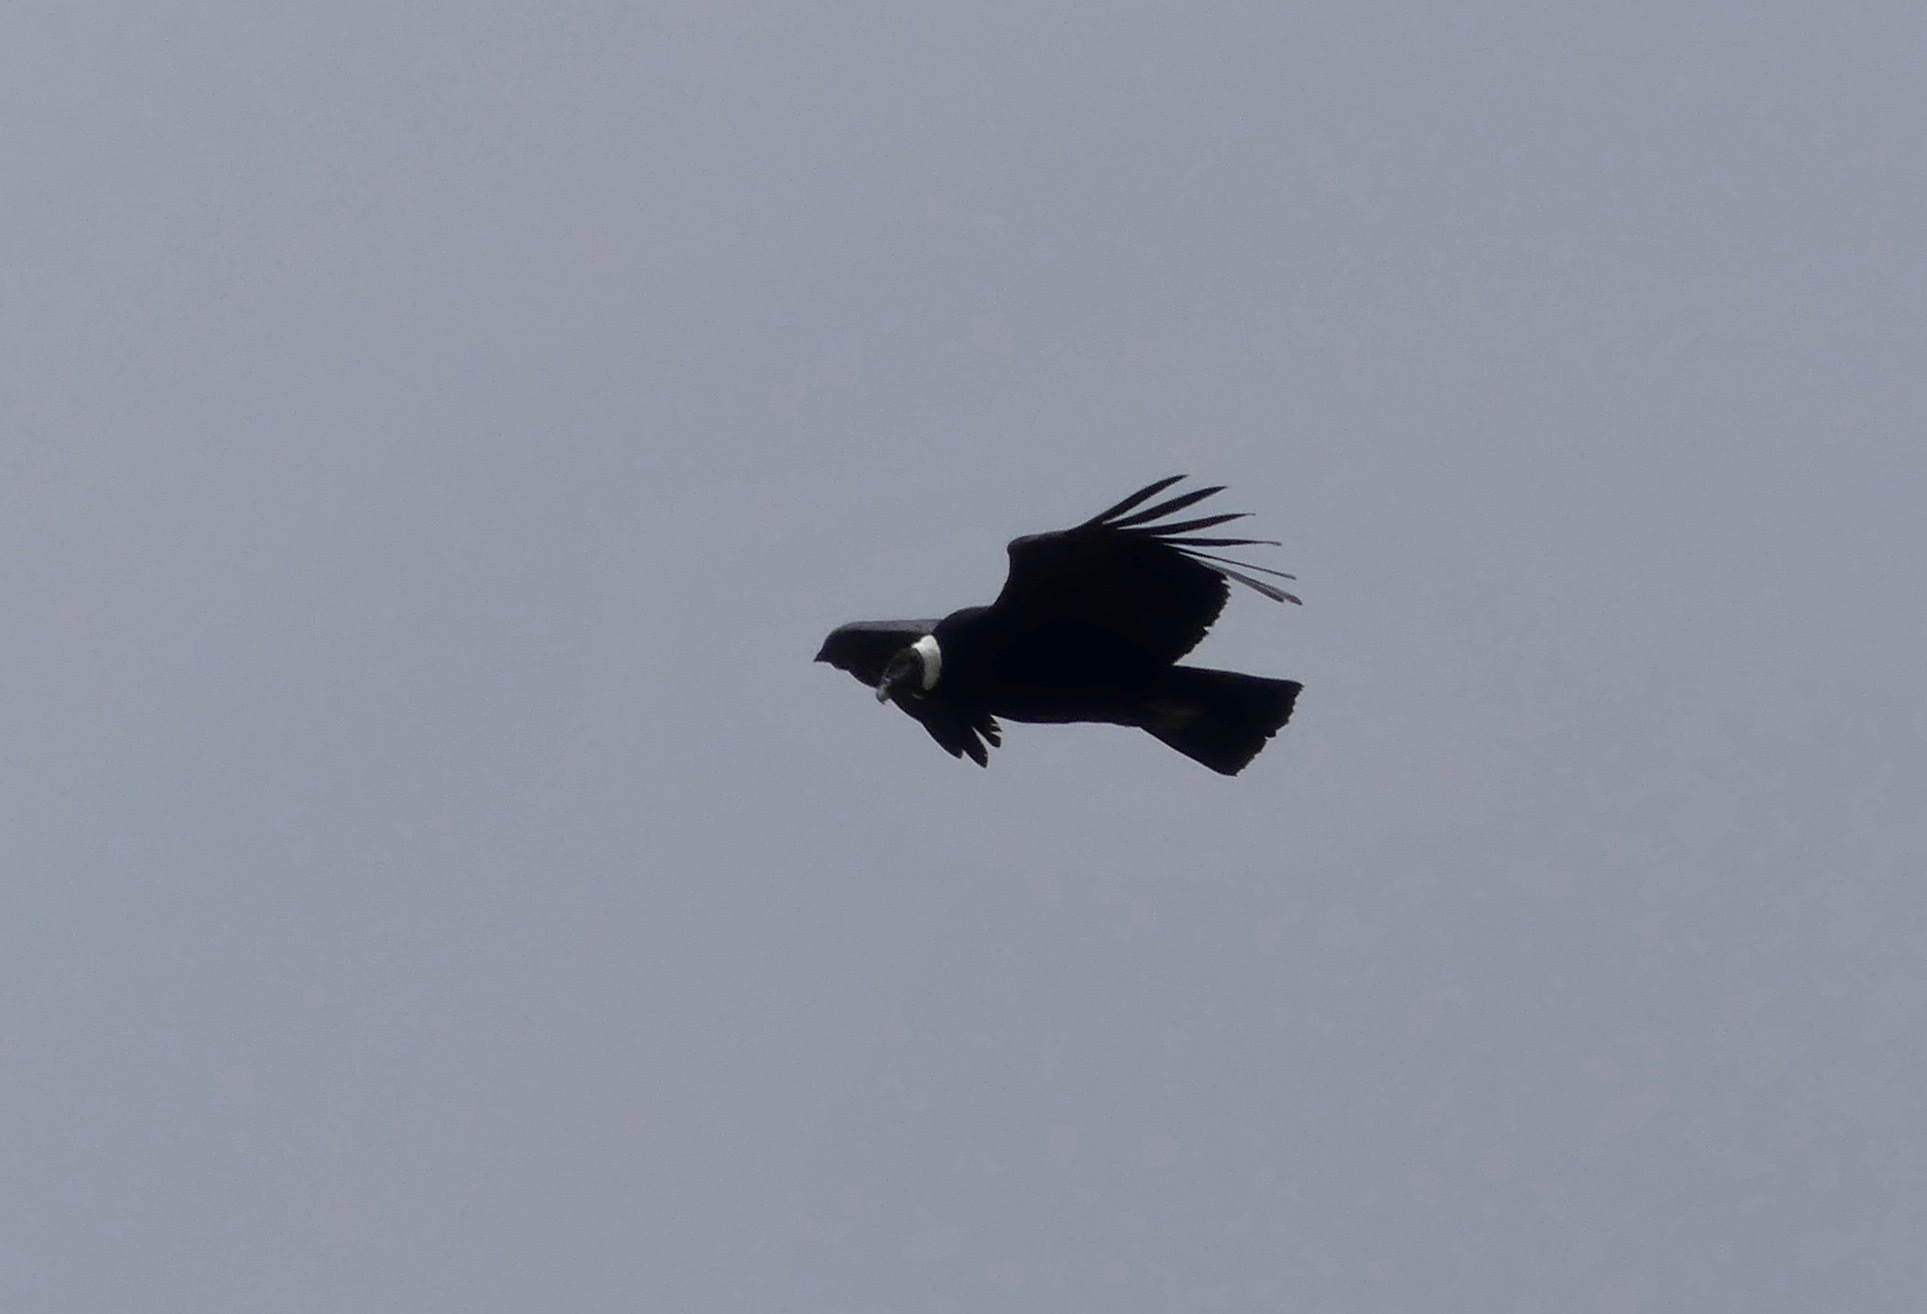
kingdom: Animalia
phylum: Chordata
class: Aves
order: Accipitriformes
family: Cathartidae
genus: Vultur
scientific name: Vultur gryphus
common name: Andean condor
